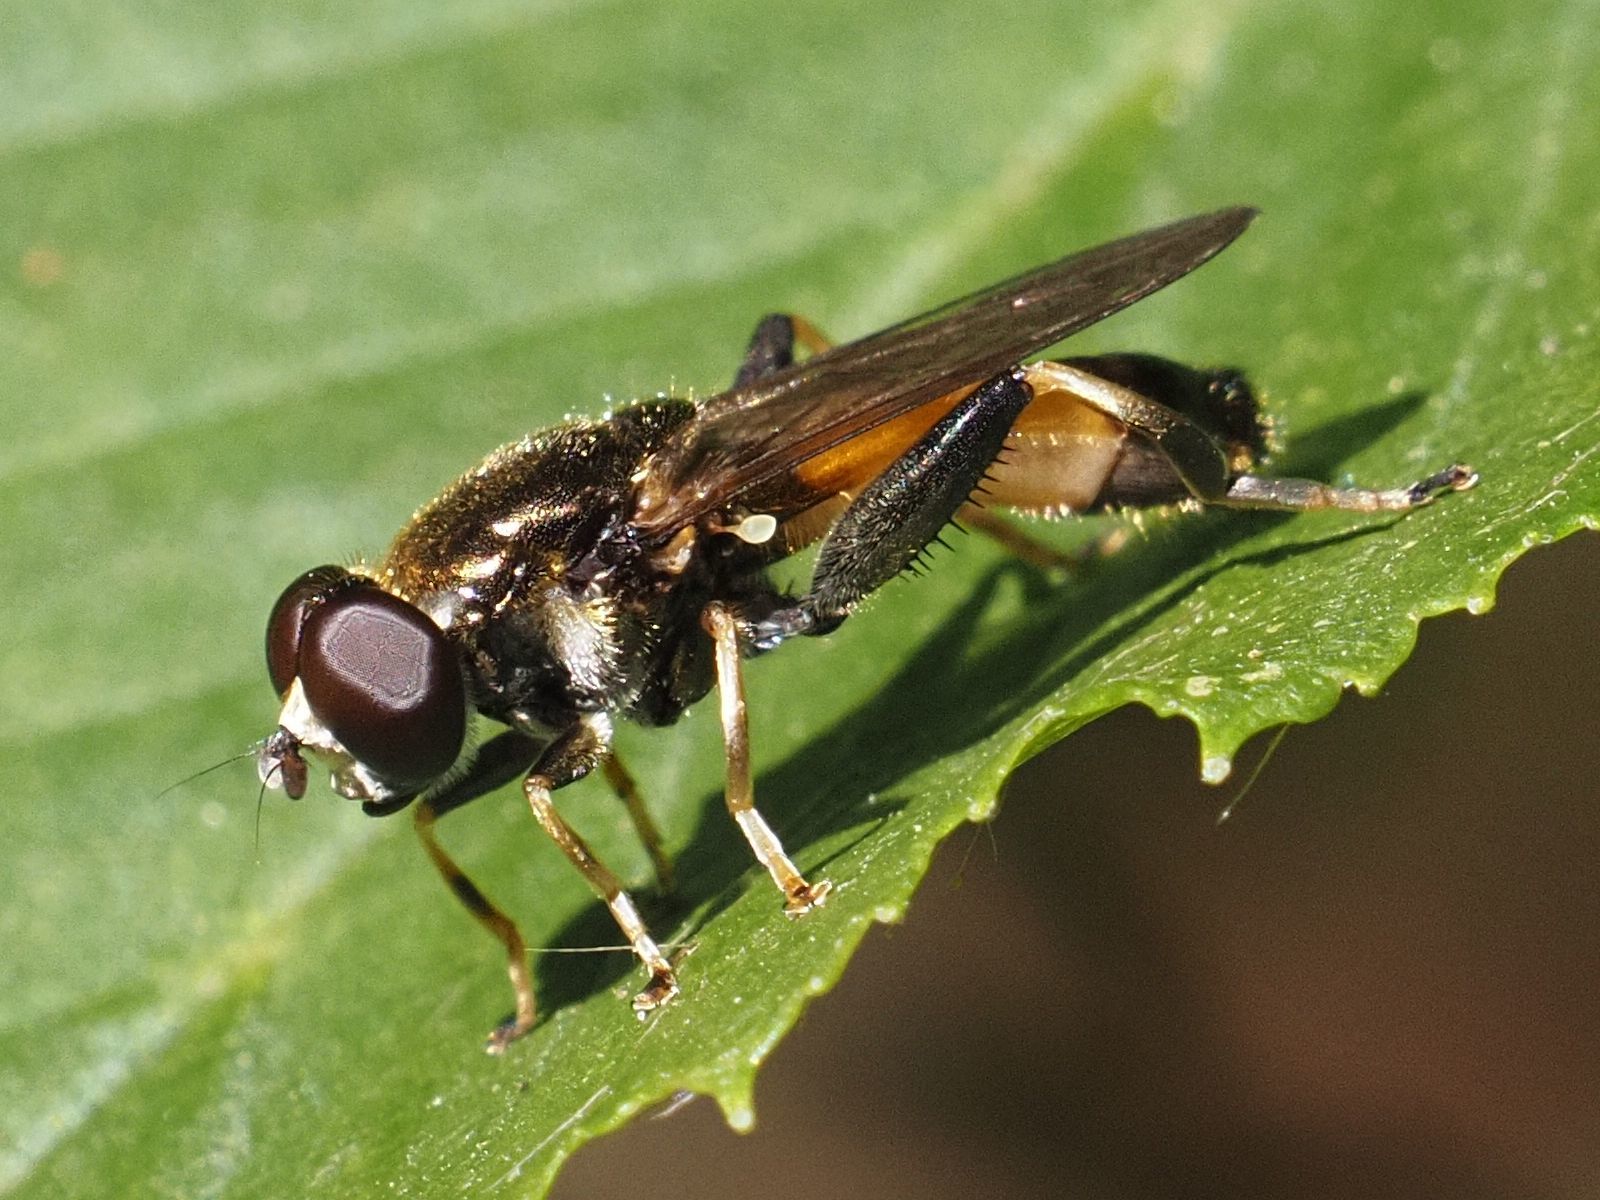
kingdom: Animalia
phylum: Arthropoda
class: Insecta
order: Diptera
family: Syrphidae
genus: Xylota
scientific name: Xylota segnis
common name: Brown-toed forest fly
